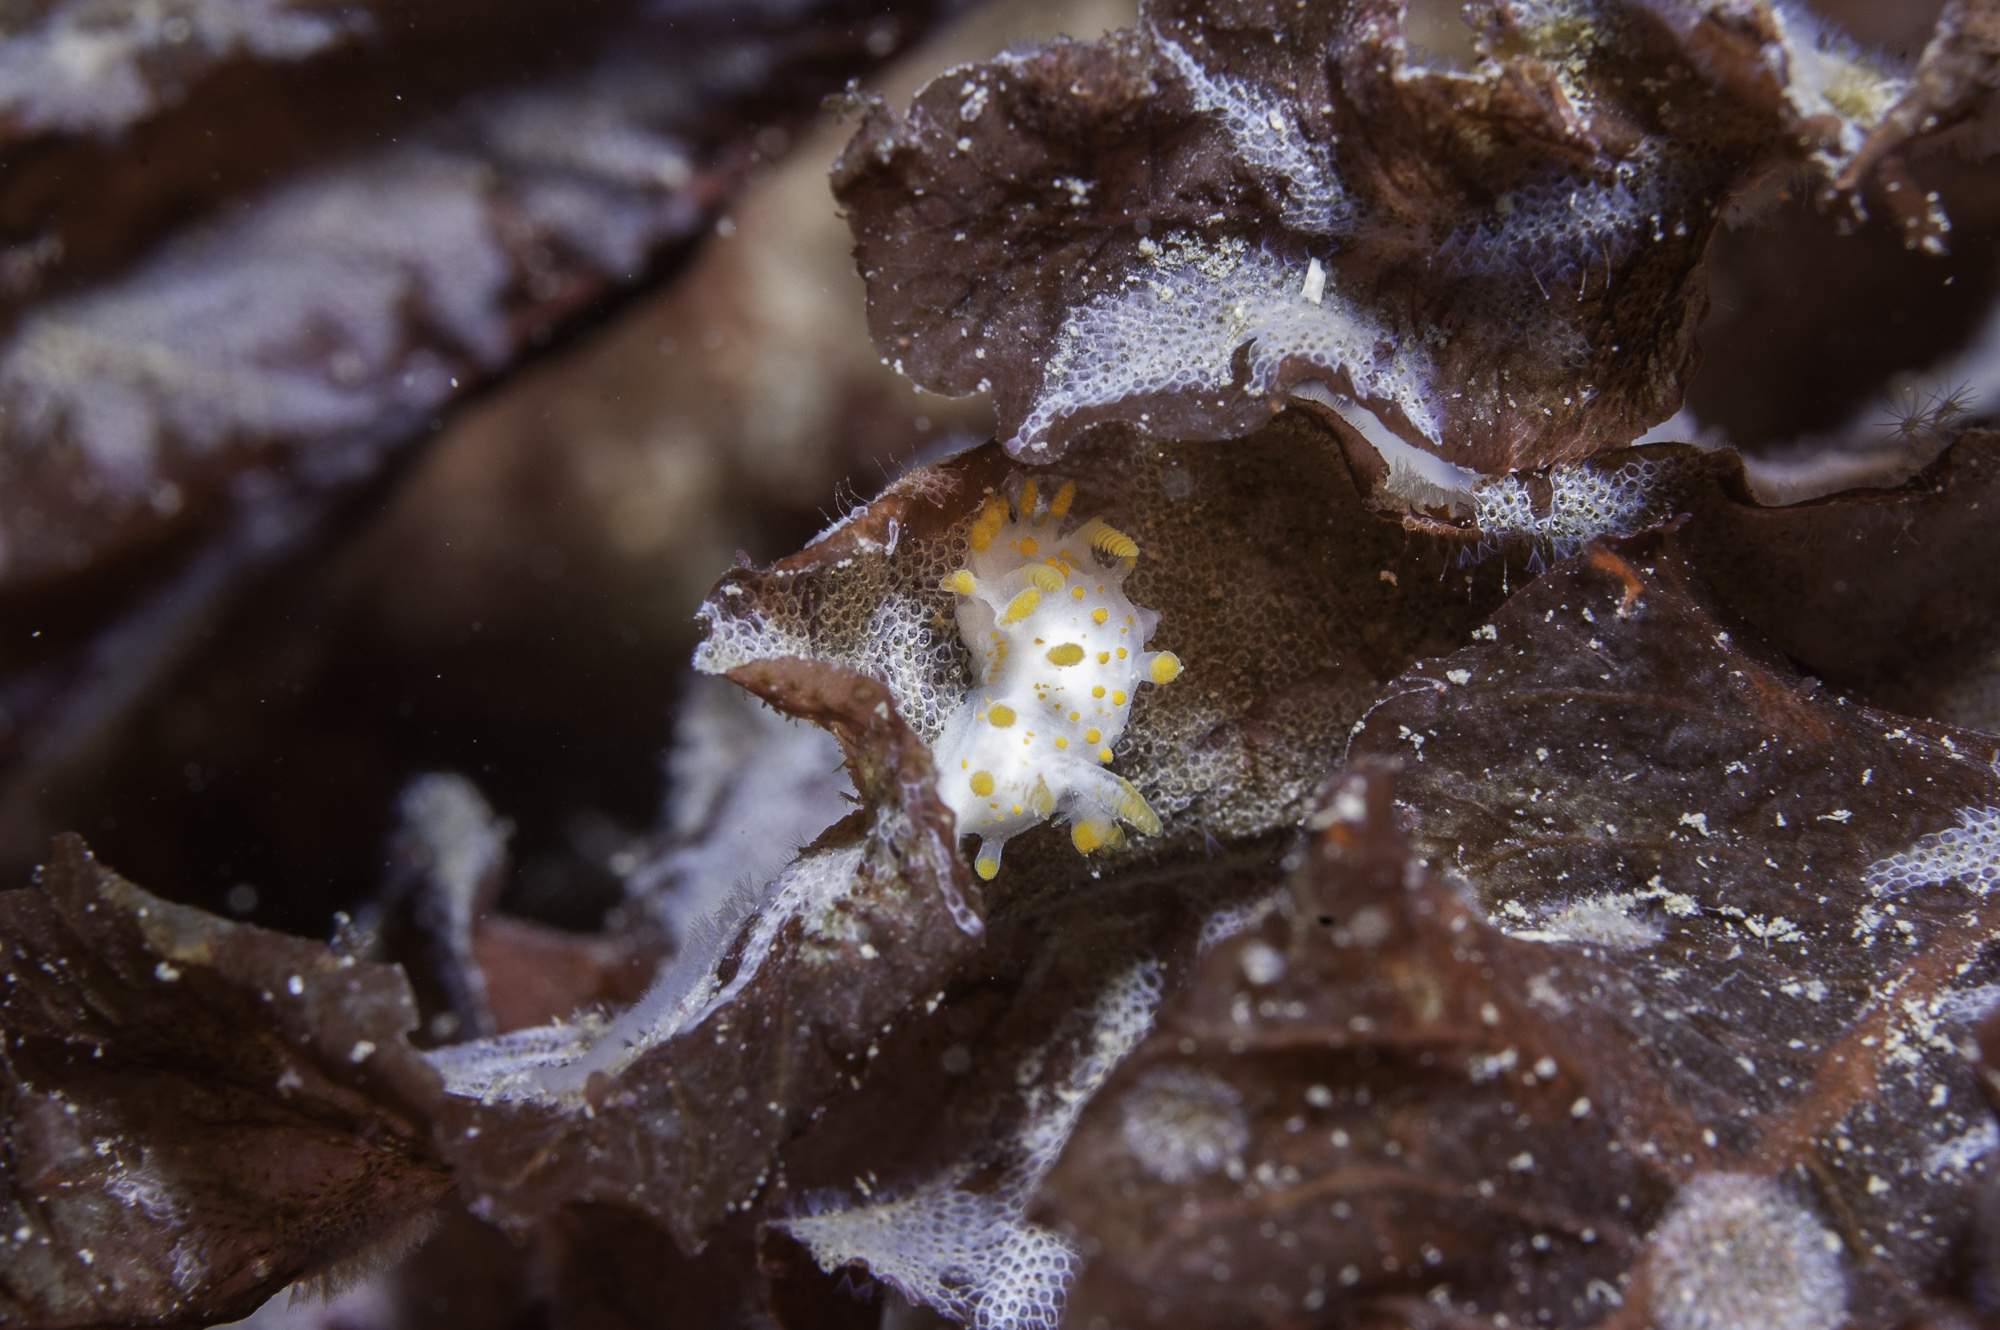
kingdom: Animalia
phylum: Mollusca
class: Gastropoda
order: Nudibranchia
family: Polyceridae
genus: Limacia
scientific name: Limacia clavigera
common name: Orange-clubbed sea slug
